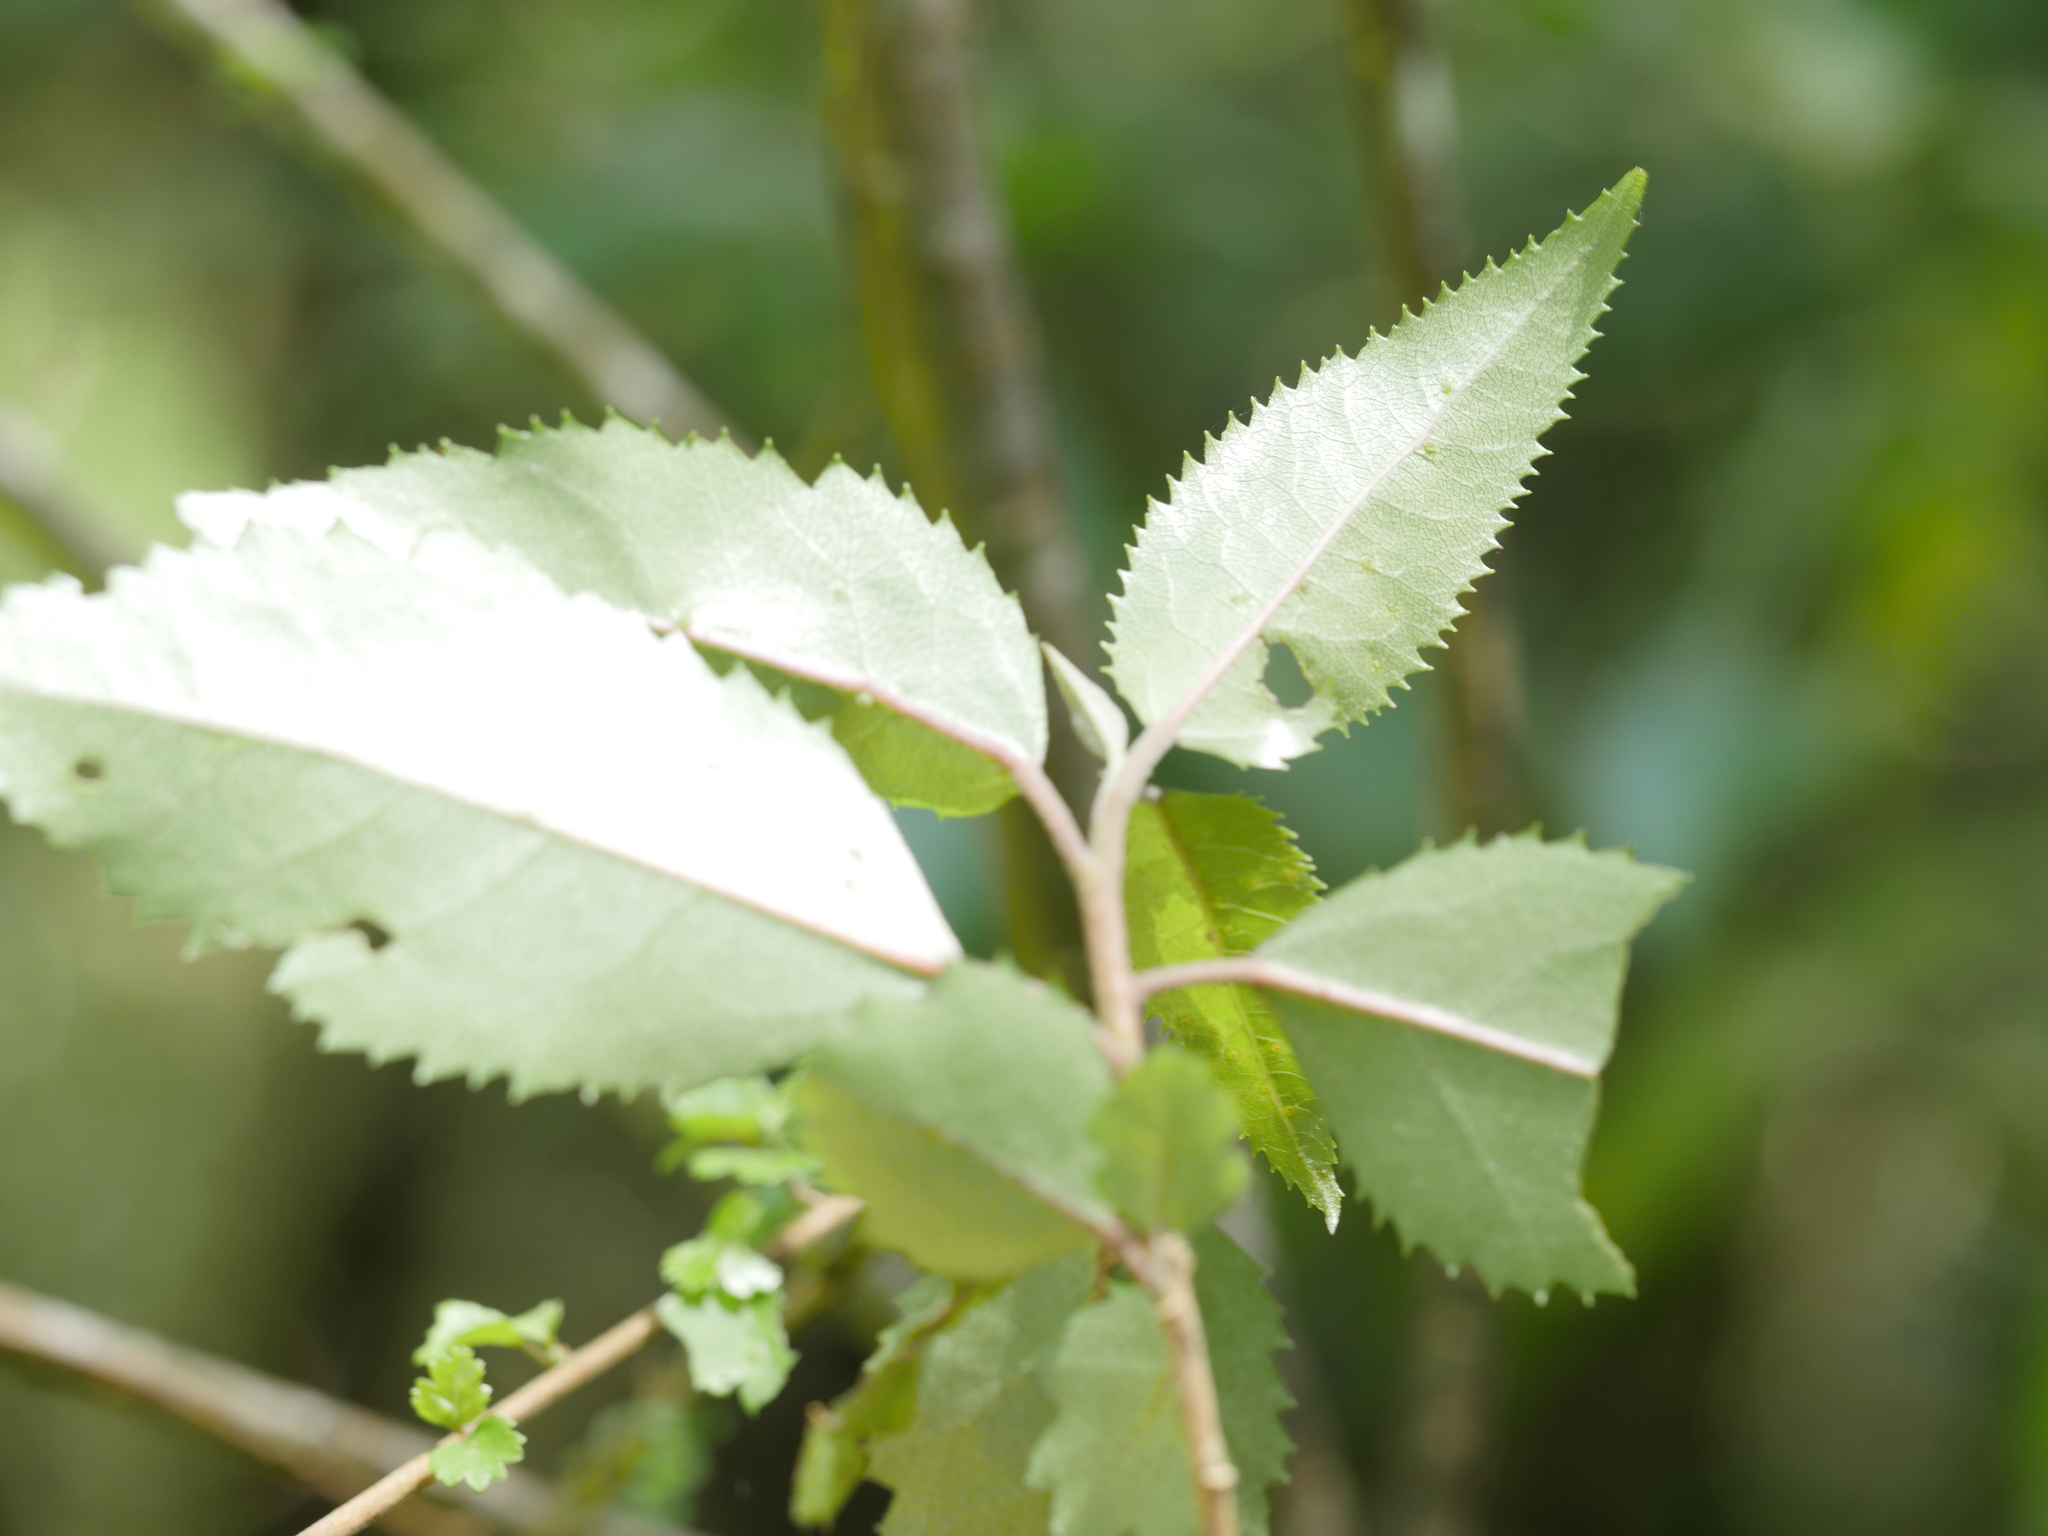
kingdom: Plantae
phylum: Tracheophyta
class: Magnoliopsida
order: Malvales
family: Malvaceae
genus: Hoheria
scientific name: Hoheria sexstylosa
